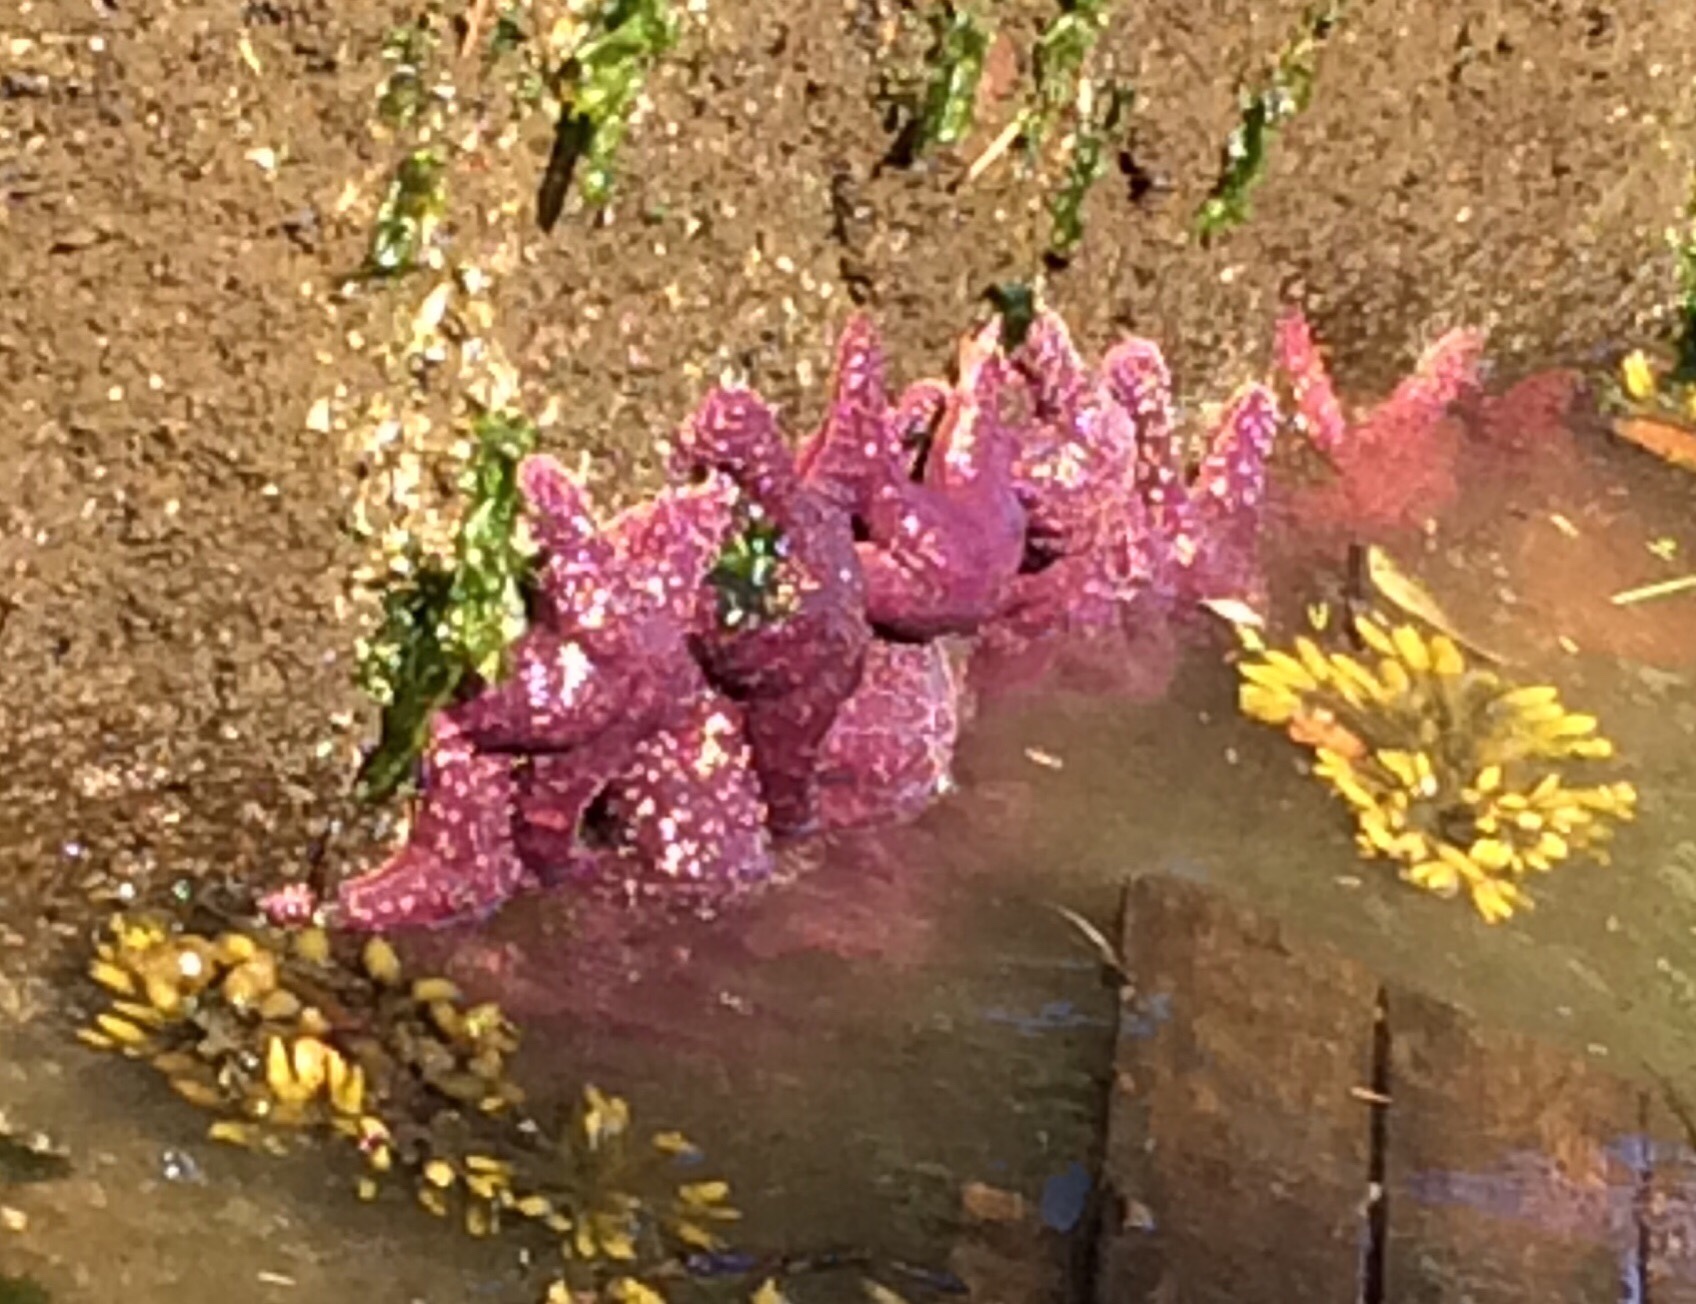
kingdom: Animalia
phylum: Echinodermata
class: Asteroidea
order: Forcipulatida
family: Asteriidae
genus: Pisaster
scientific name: Pisaster ochraceus
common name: Ochre stars
